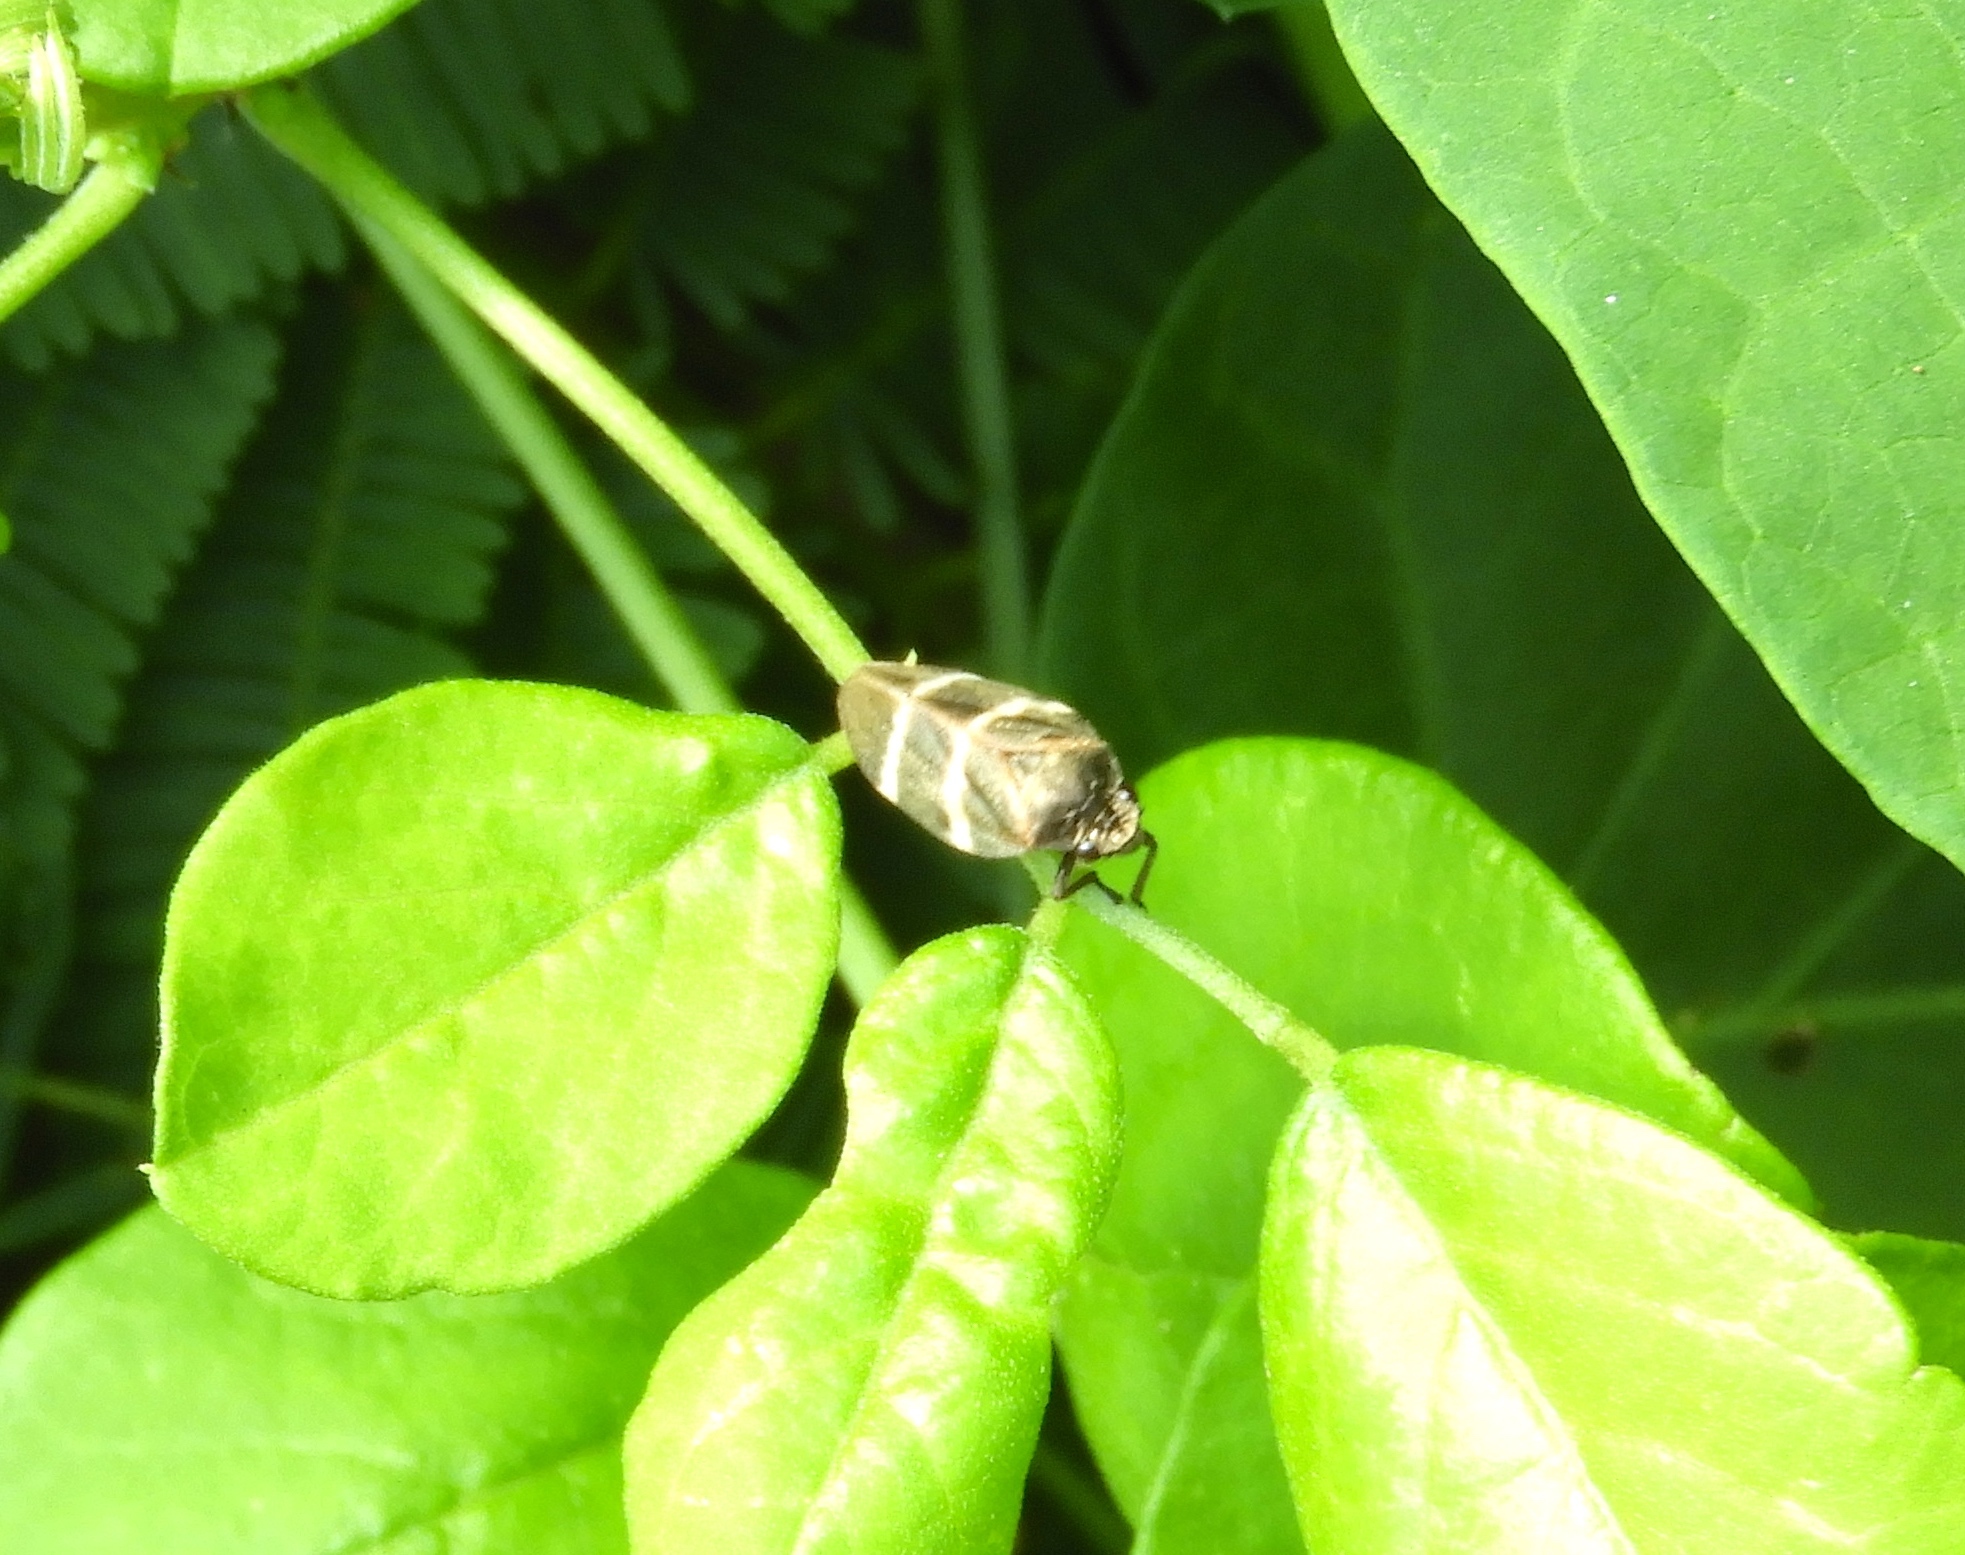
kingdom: Animalia
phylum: Arthropoda
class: Insecta
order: Hemiptera
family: Cercopidae
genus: Aeneolamia
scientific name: Aeneolamia albofasciata
